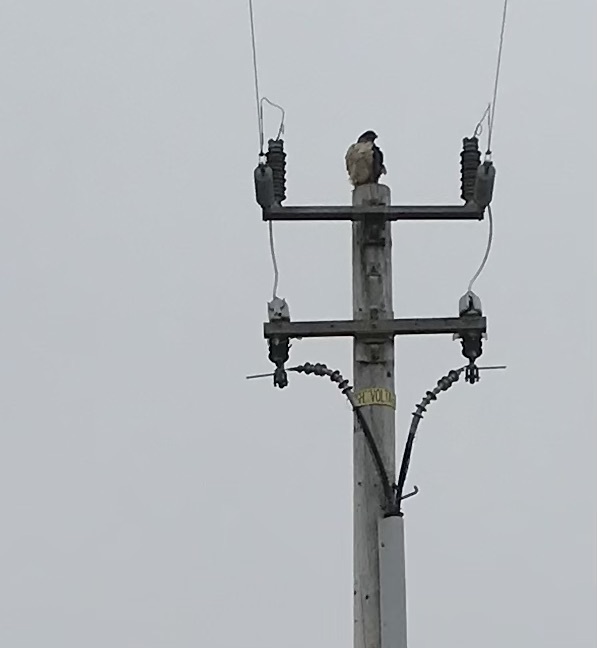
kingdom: Animalia
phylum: Chordata
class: Aves
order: Accipitriformes
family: Accipitridae
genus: Buteo
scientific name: Buteo jamaicensis
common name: Red-tailed hawk
